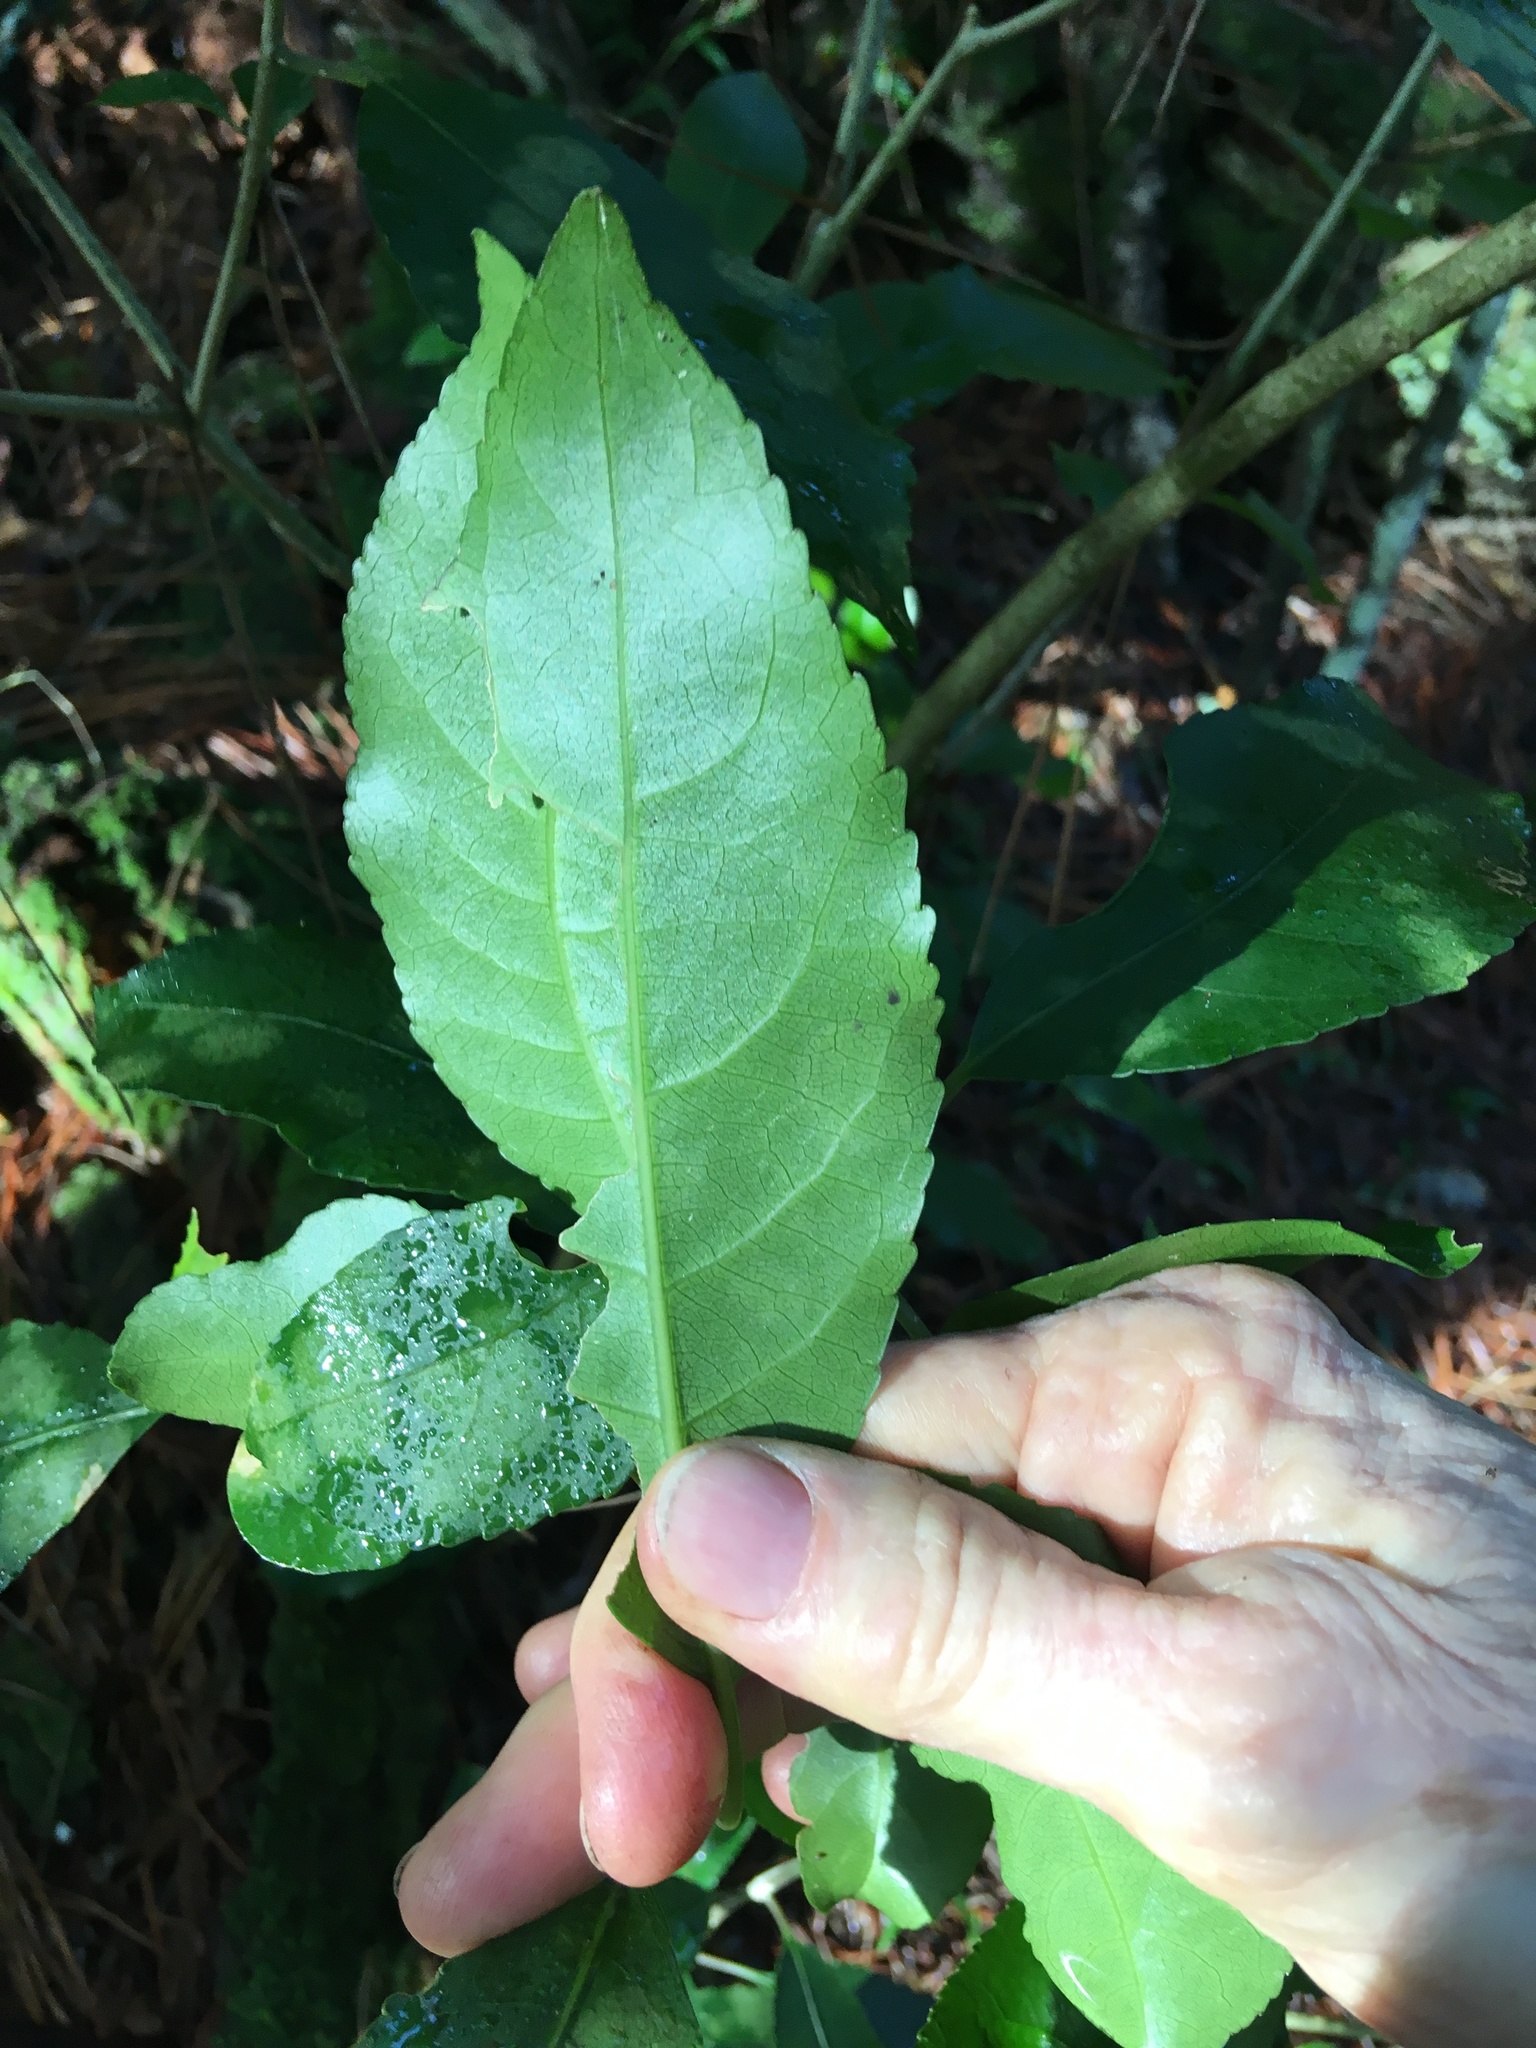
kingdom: Plantae
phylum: Tracheophyta
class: Magnoliopsida
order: Malpighiales
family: Violaceae
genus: Melicytus
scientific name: Melicytus ramiflorus
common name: Mahoe
